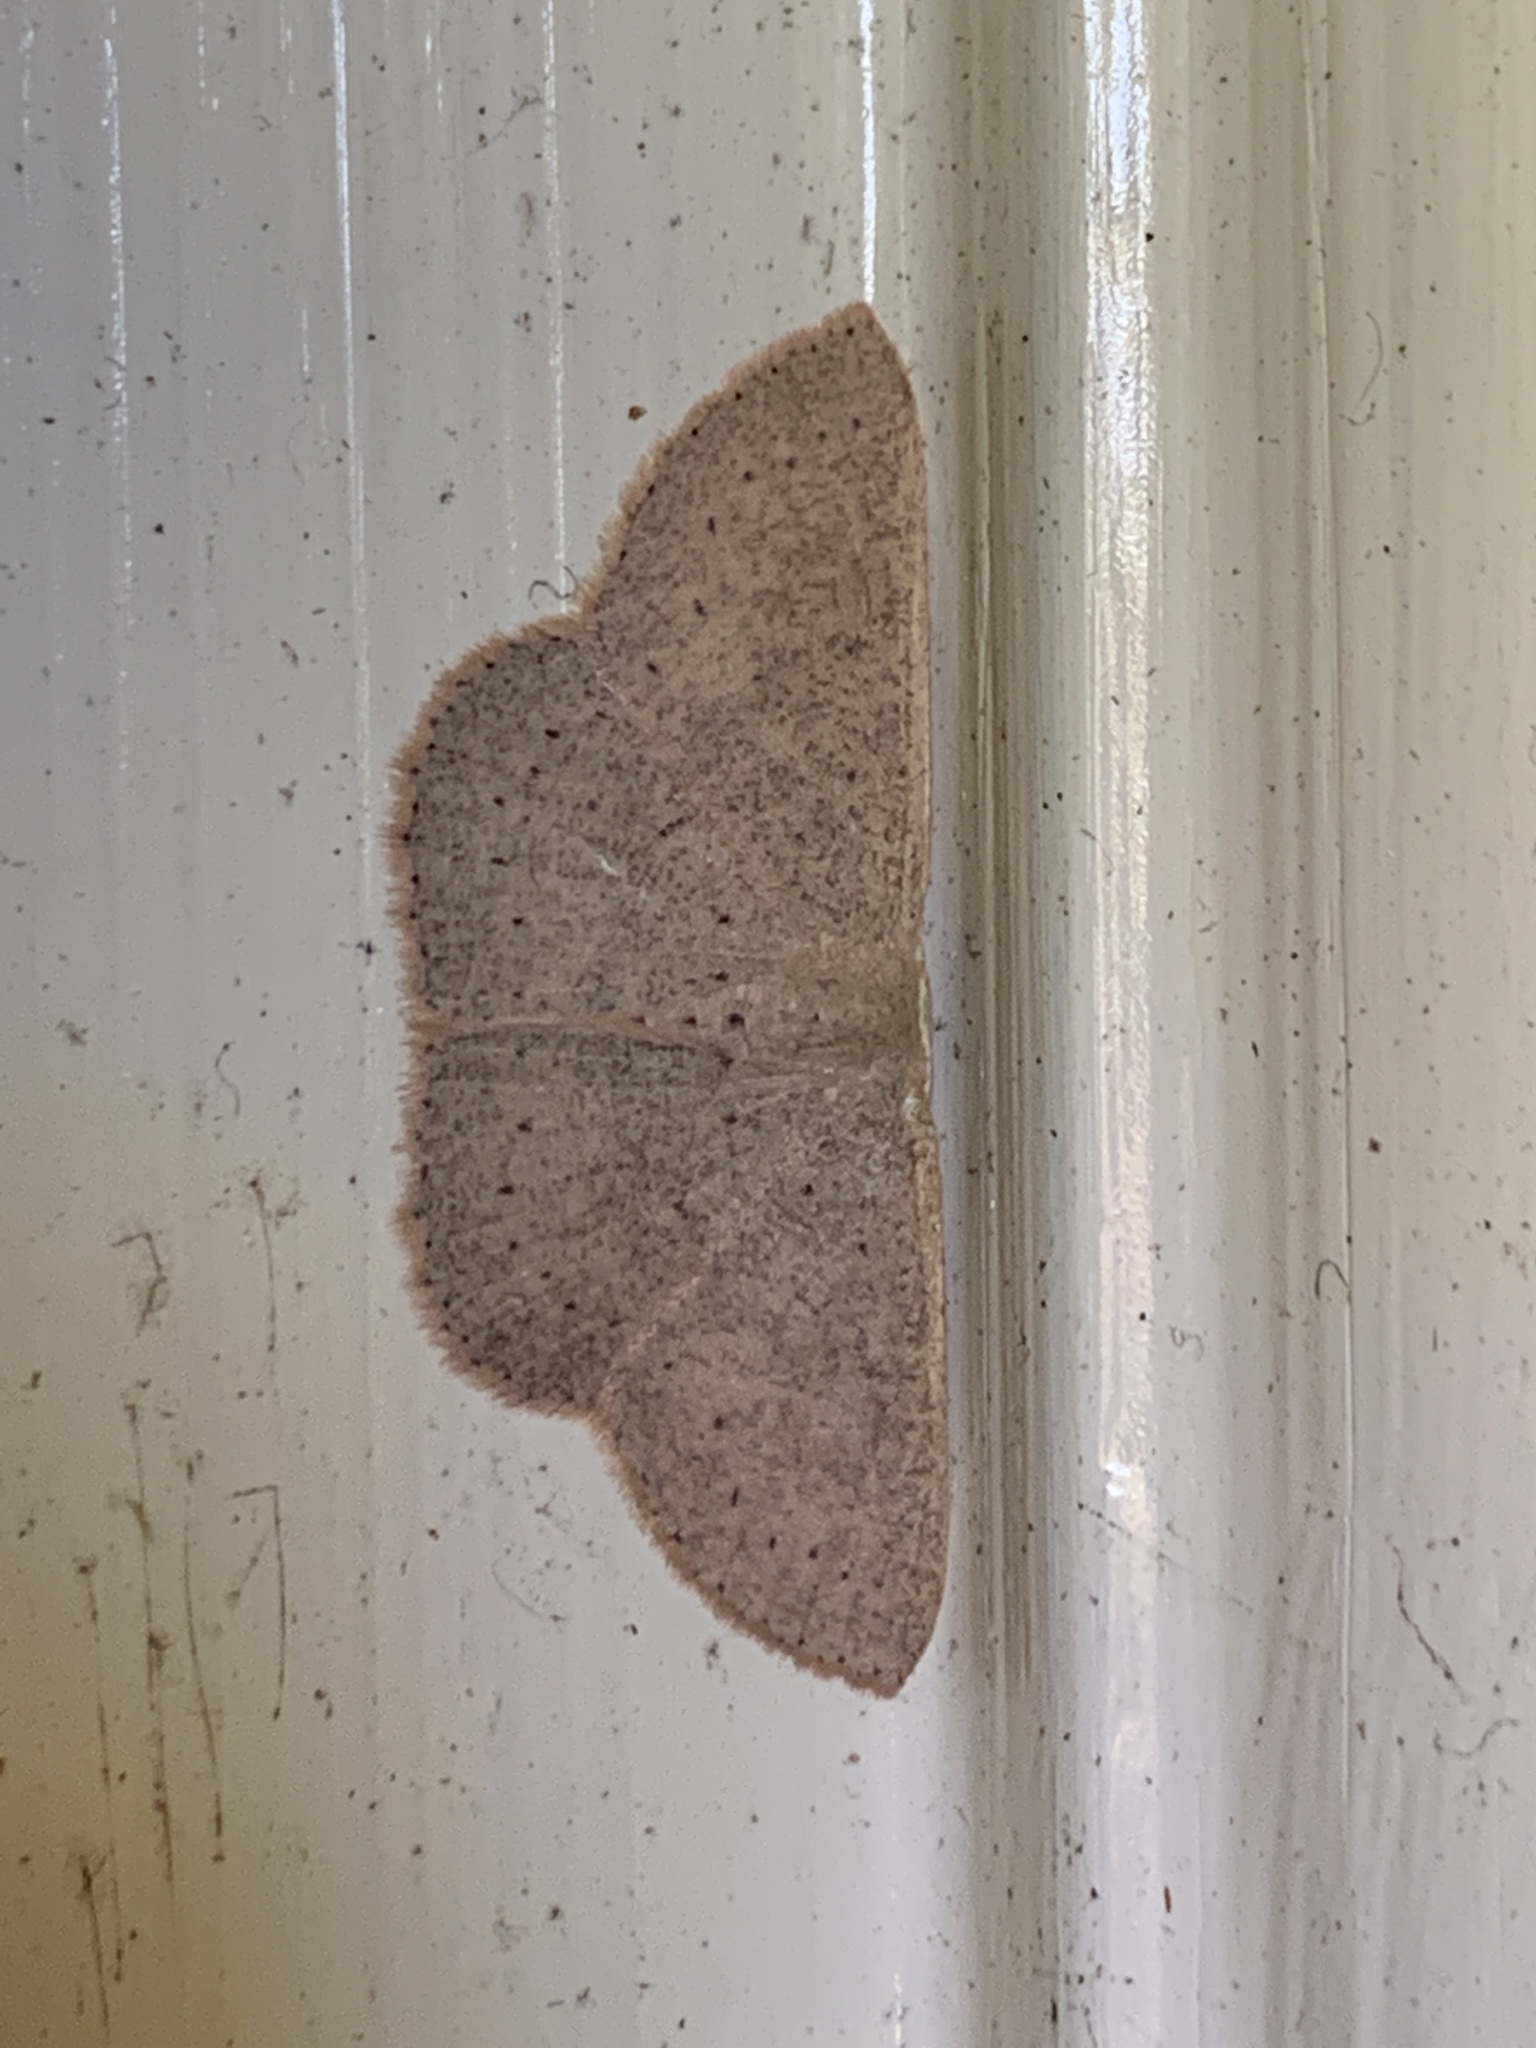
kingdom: Animalia
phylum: Arthropoda
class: Insecta
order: Lepidoptera
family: Geometridae
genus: Cyclophora
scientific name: Cyclophora obstataria
